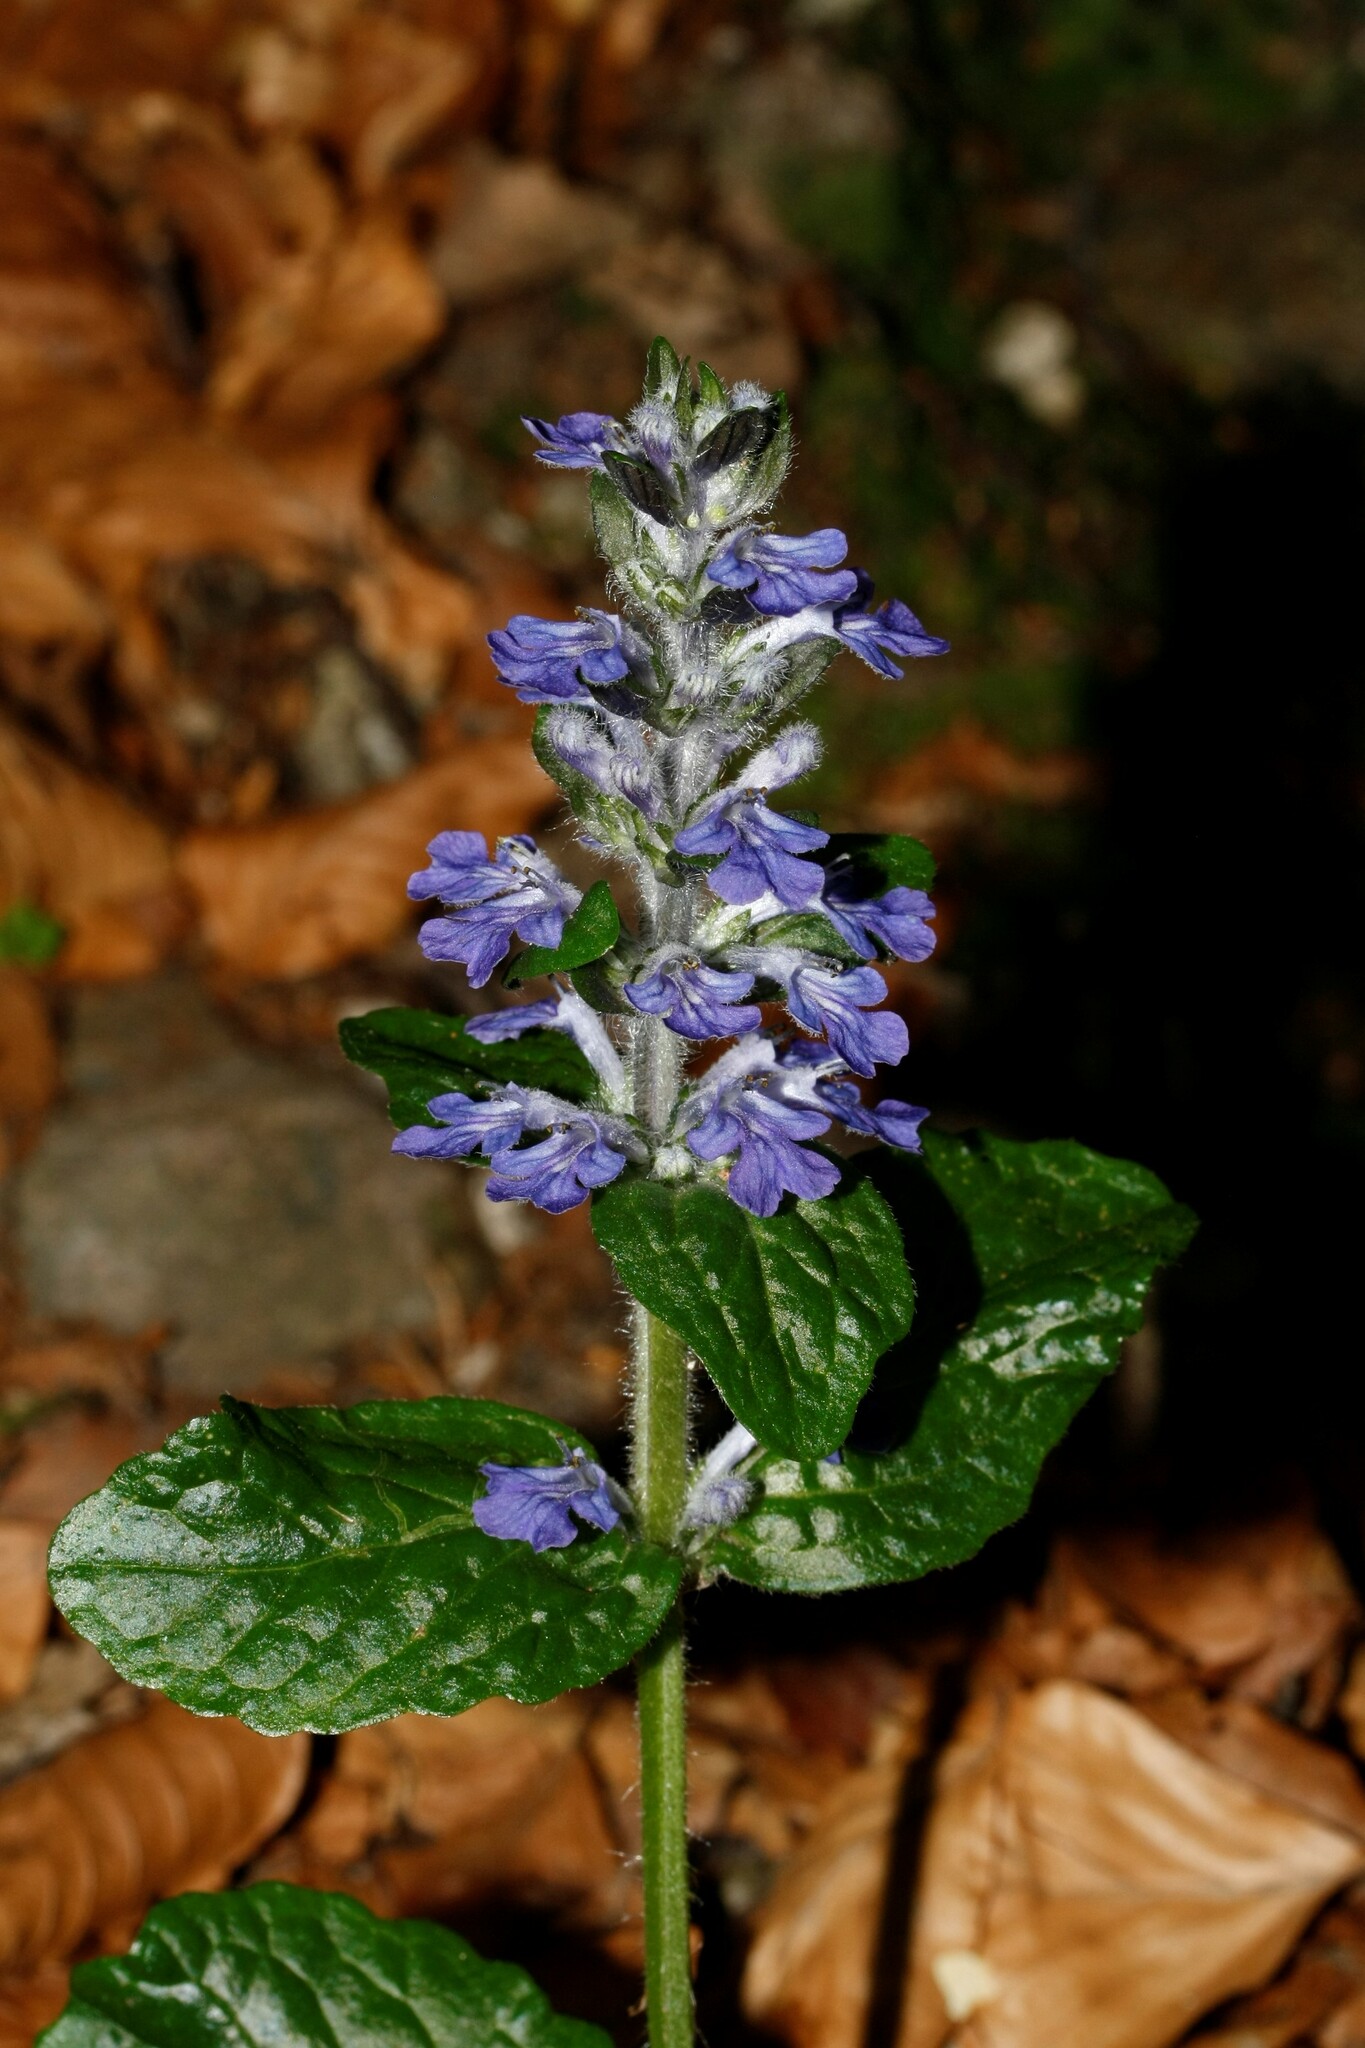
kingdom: Plantae
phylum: Tracheophyta
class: Magnoliopsida
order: Lamiales
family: Lamiaceae
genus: Ajuga
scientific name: Ajuga reptans
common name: Bugle
